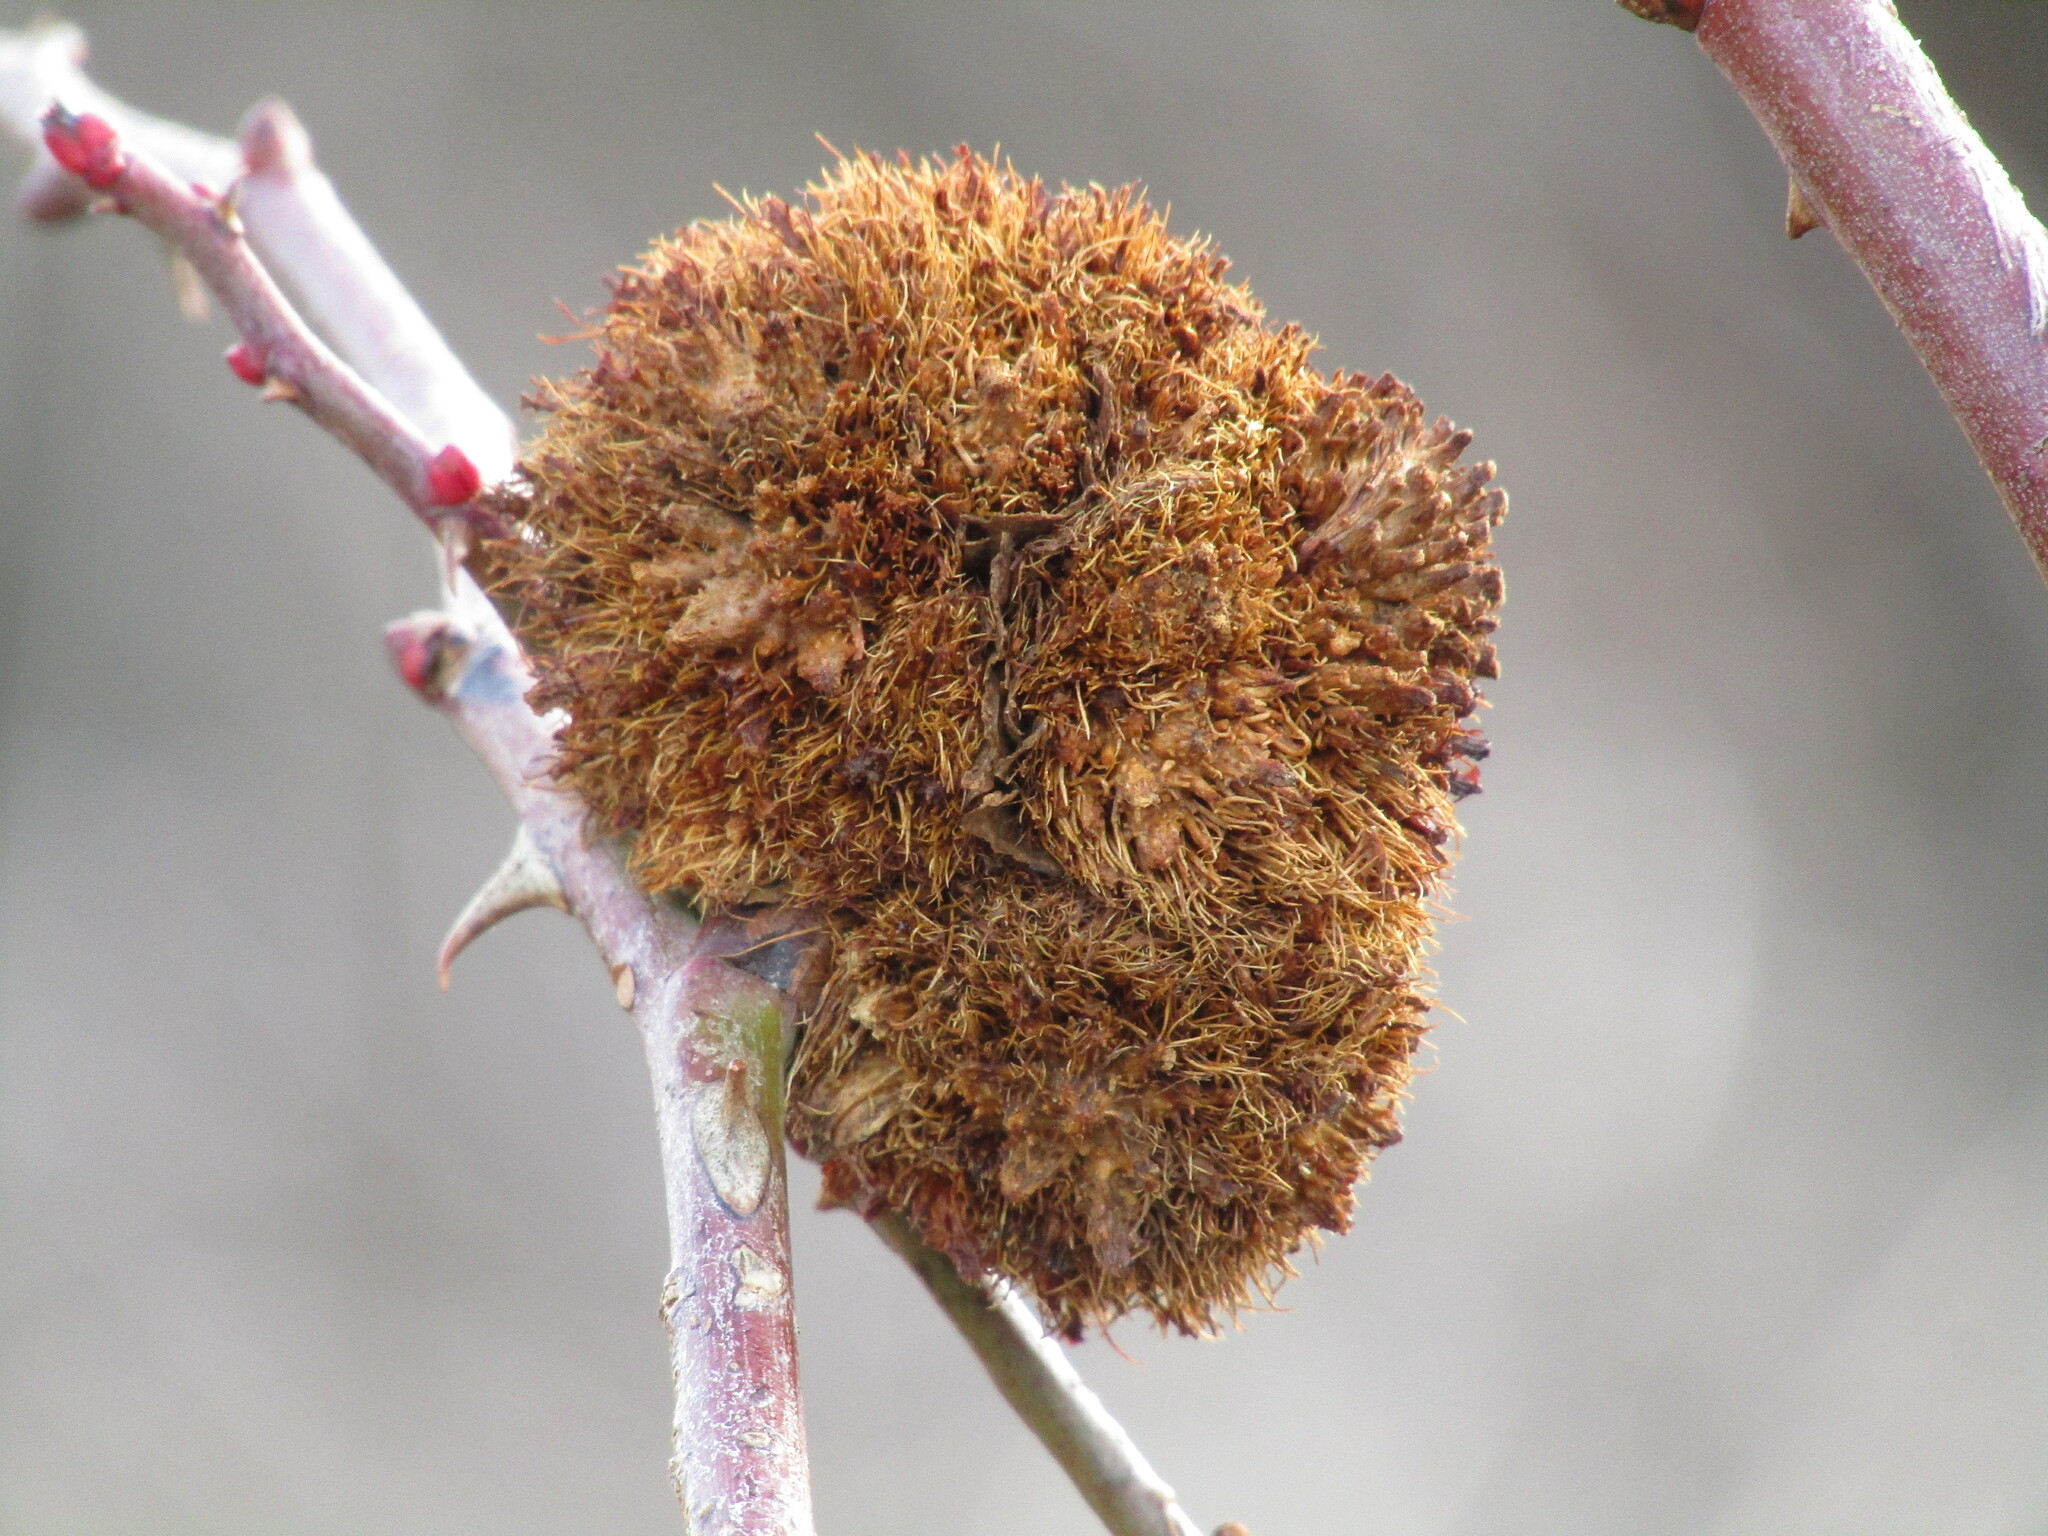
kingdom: Animalia
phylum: Arthropoda
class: Insecta
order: Hymenoptera
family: Cynipidae
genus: Diplolepis
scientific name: Diplolepis rosae
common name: Bedeguar gall
